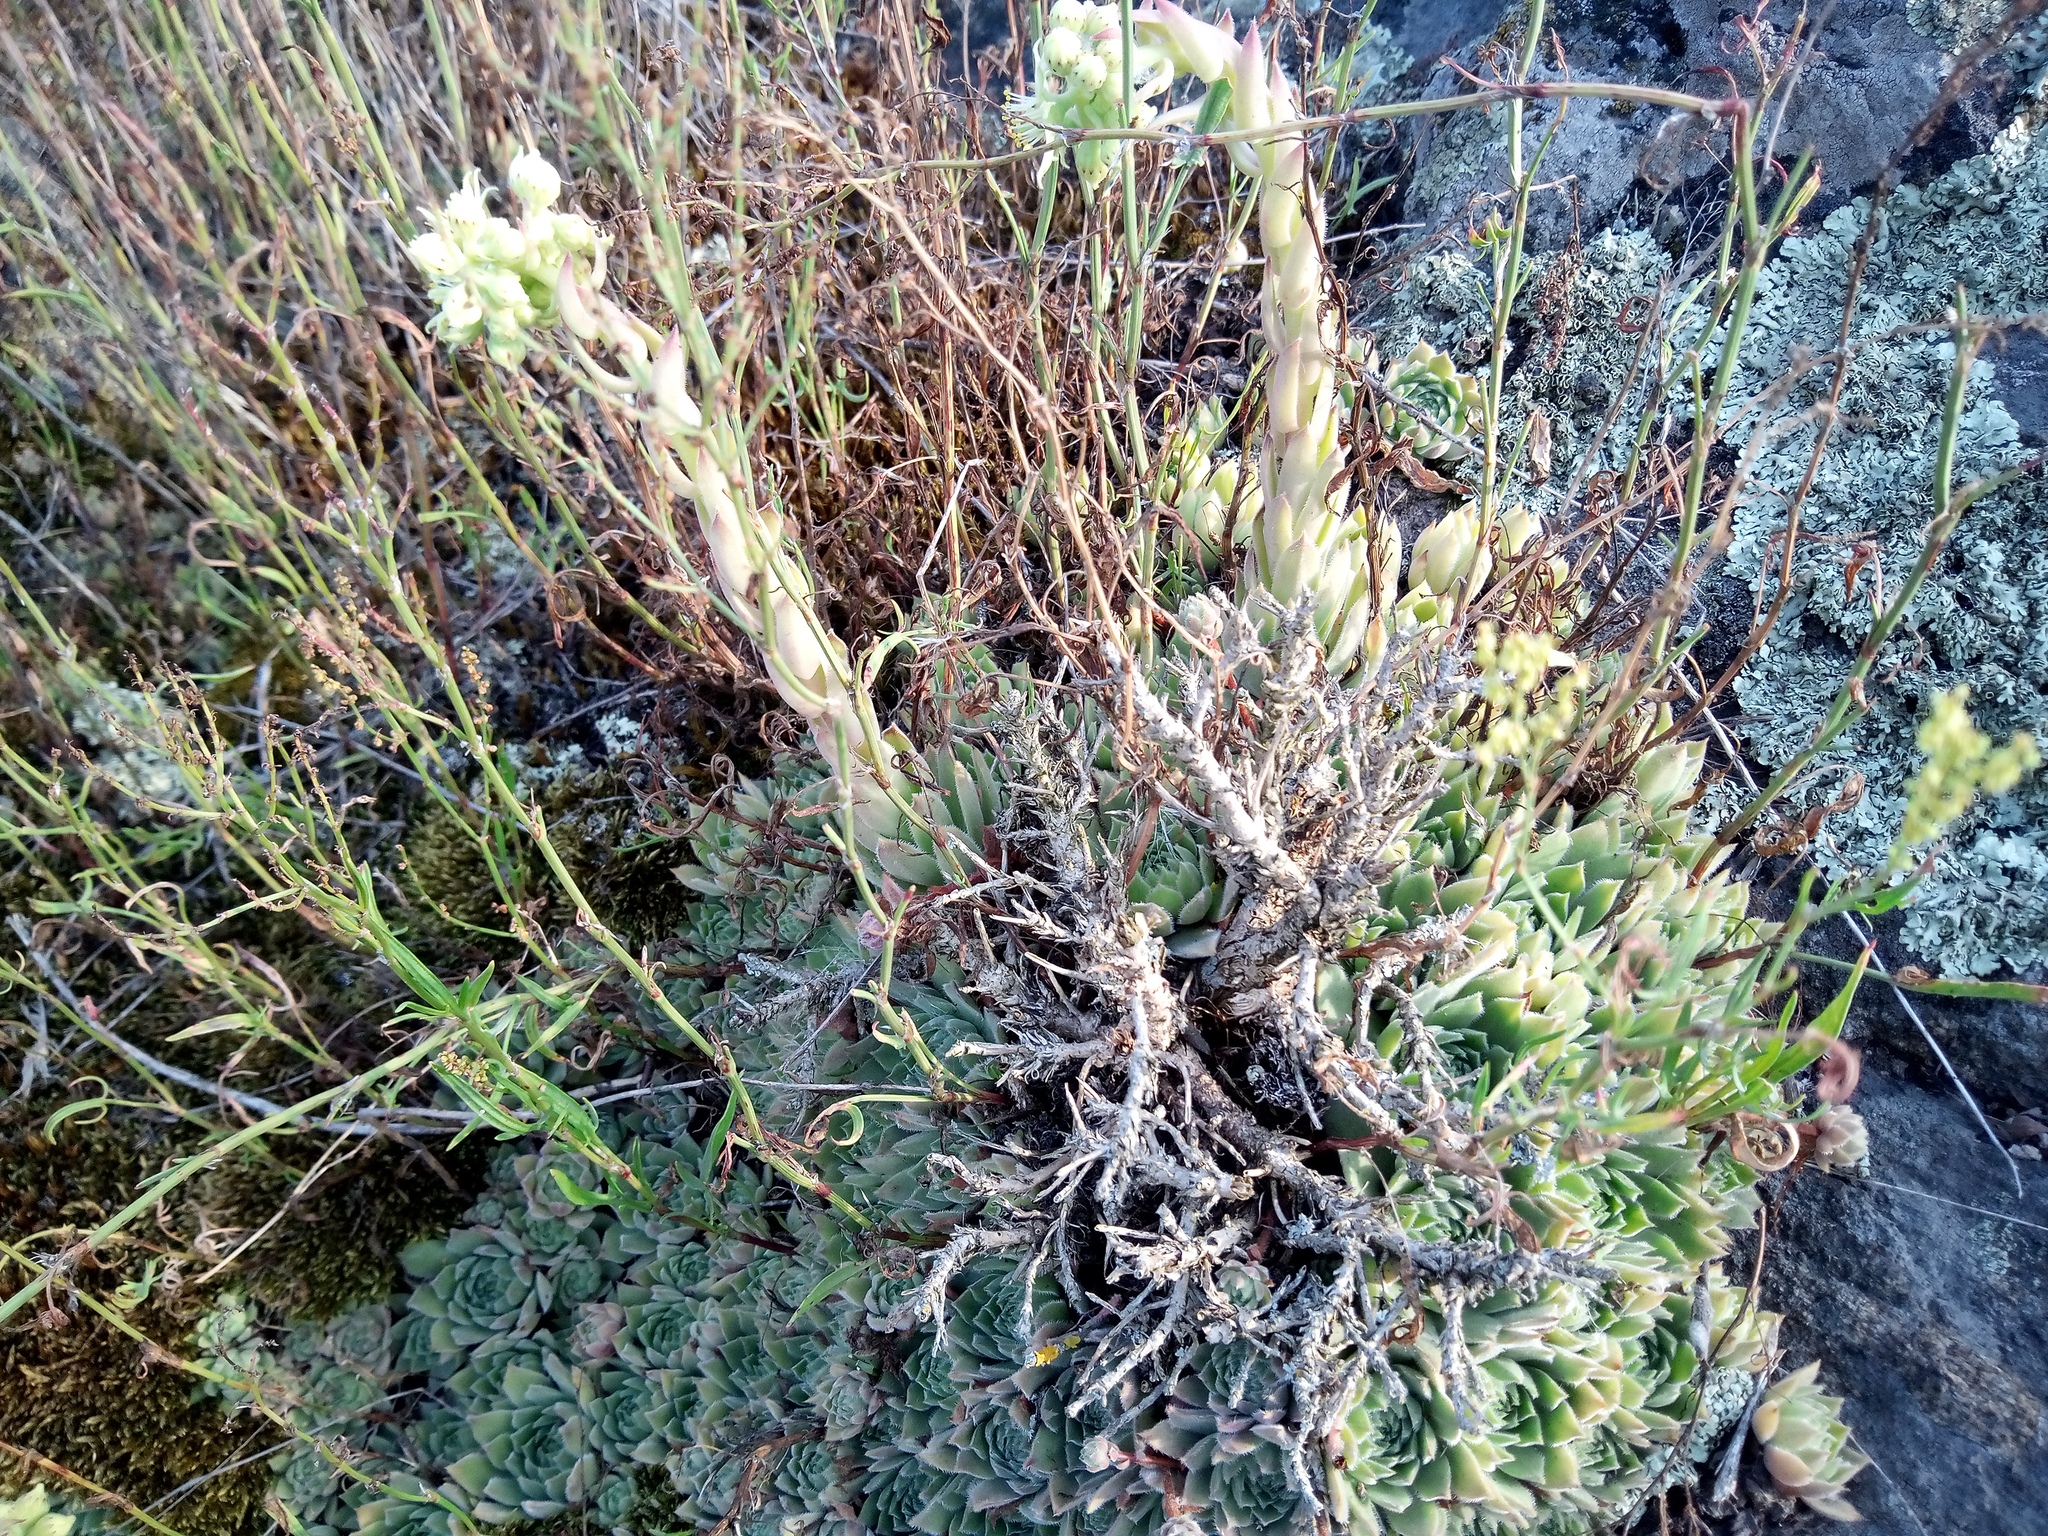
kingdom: Plantae
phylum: Tracheophyta
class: Magnoliopsida
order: Saxifragales
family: Crassulaceae
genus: Sempervivum
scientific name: Sempervivum ruthenicum
